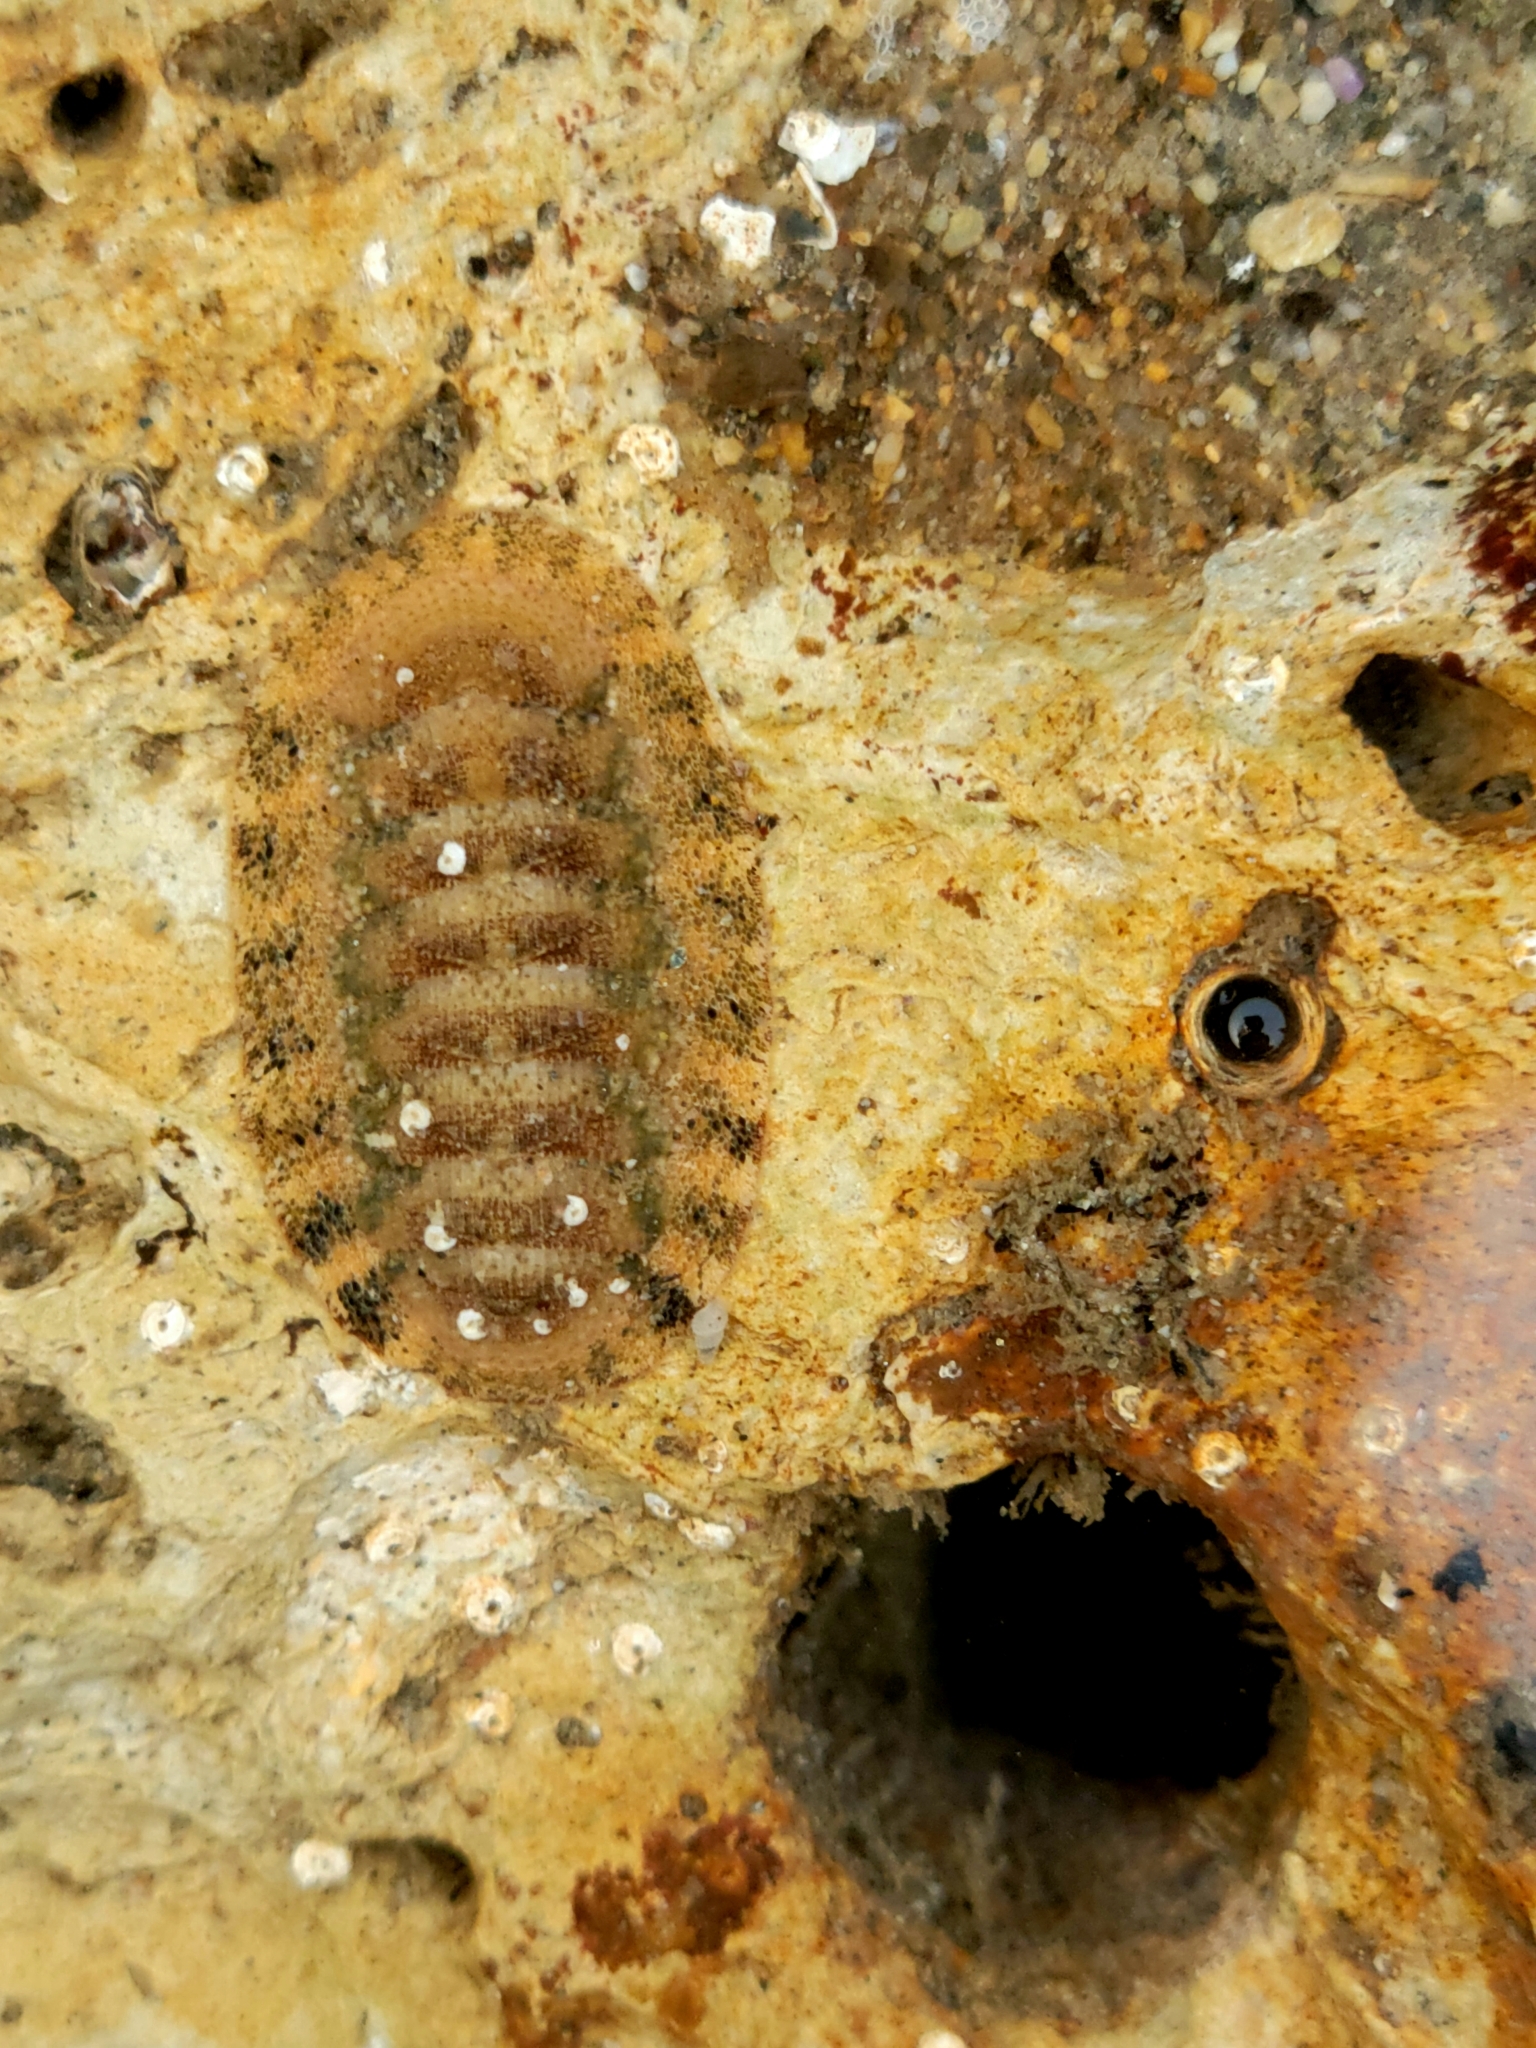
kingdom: Animalia
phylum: Mollusca
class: Polyplacophora
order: Chitonida
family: Ischnochitonidae
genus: Lepidozona
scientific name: Lepidozona pectinulata
